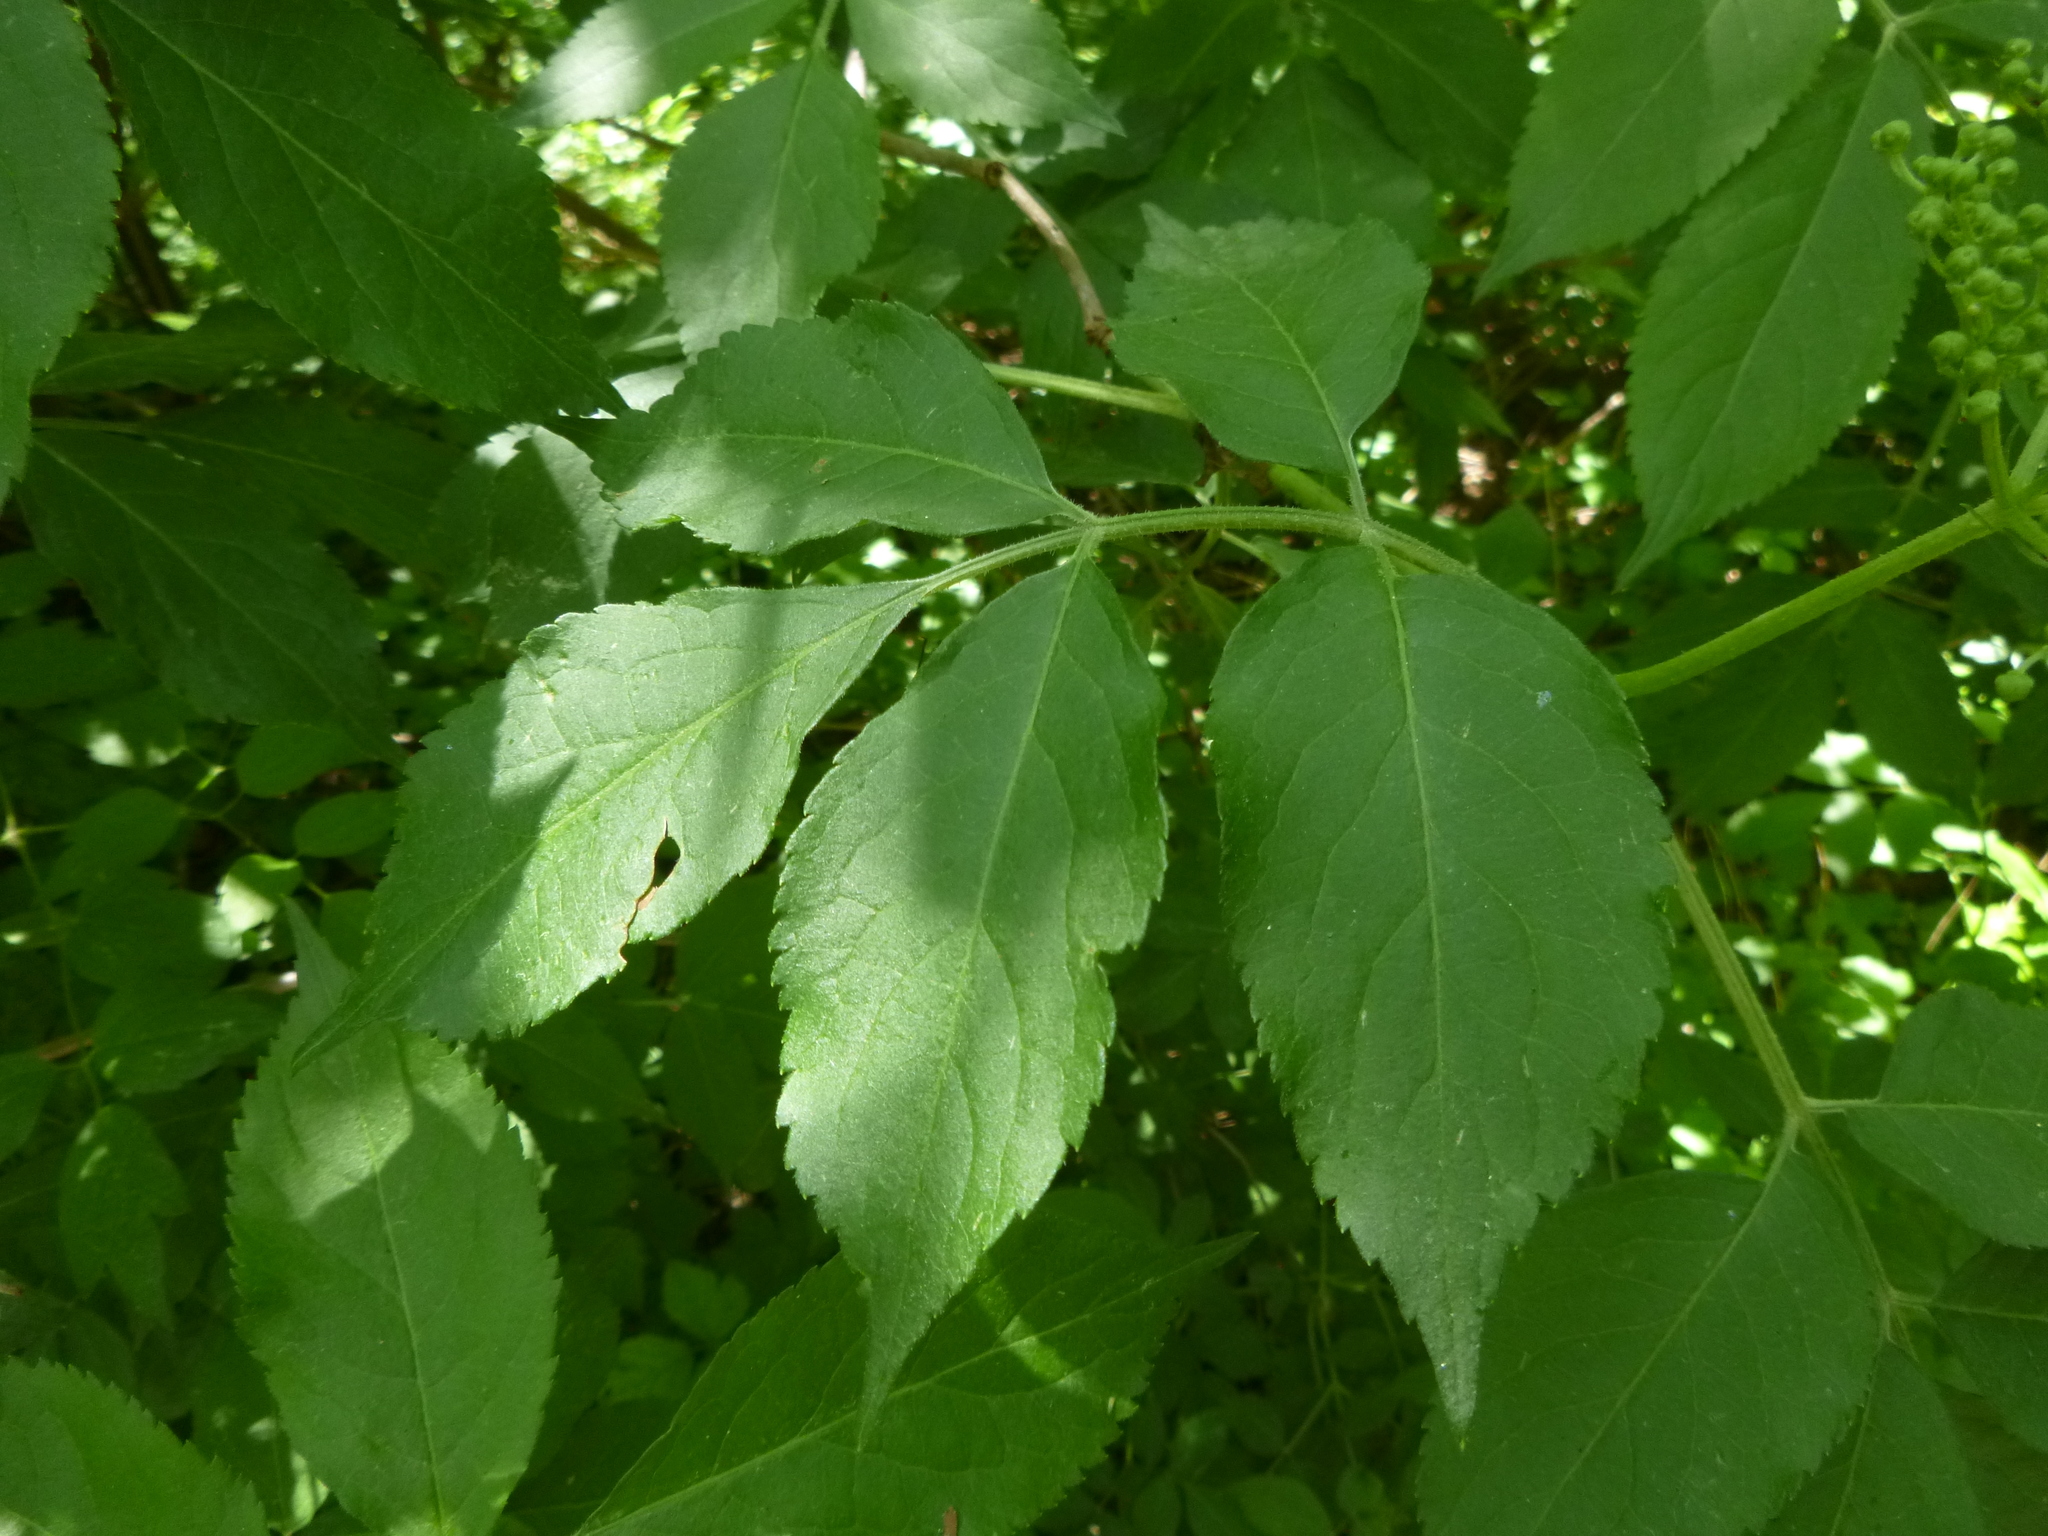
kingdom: Plantae
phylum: Tracheophyta
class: Magnoliopsida
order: Dipsacales
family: Viburnaceae
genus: Sambucus
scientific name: Sambucus nigra
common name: Elder
